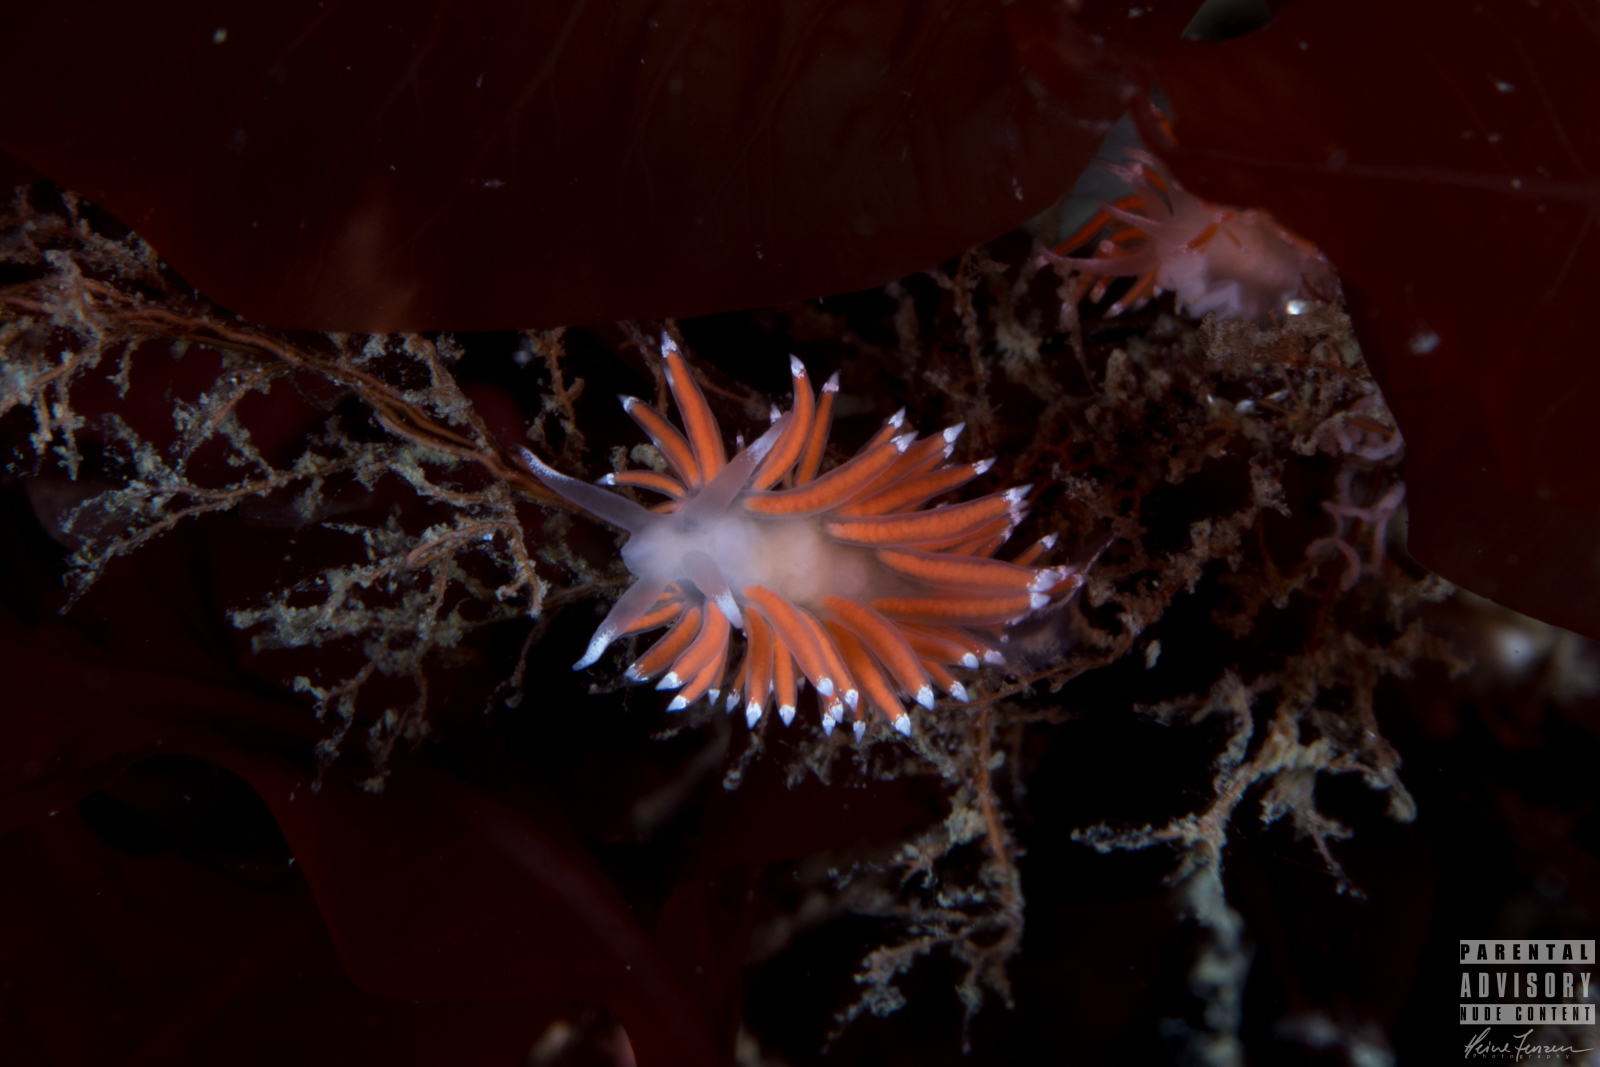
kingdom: Animalia
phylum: Mollusca
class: Gastropoda
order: Nudibranchia
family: Coryphellidae
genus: Coryphella
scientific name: Coryphella gracilis
